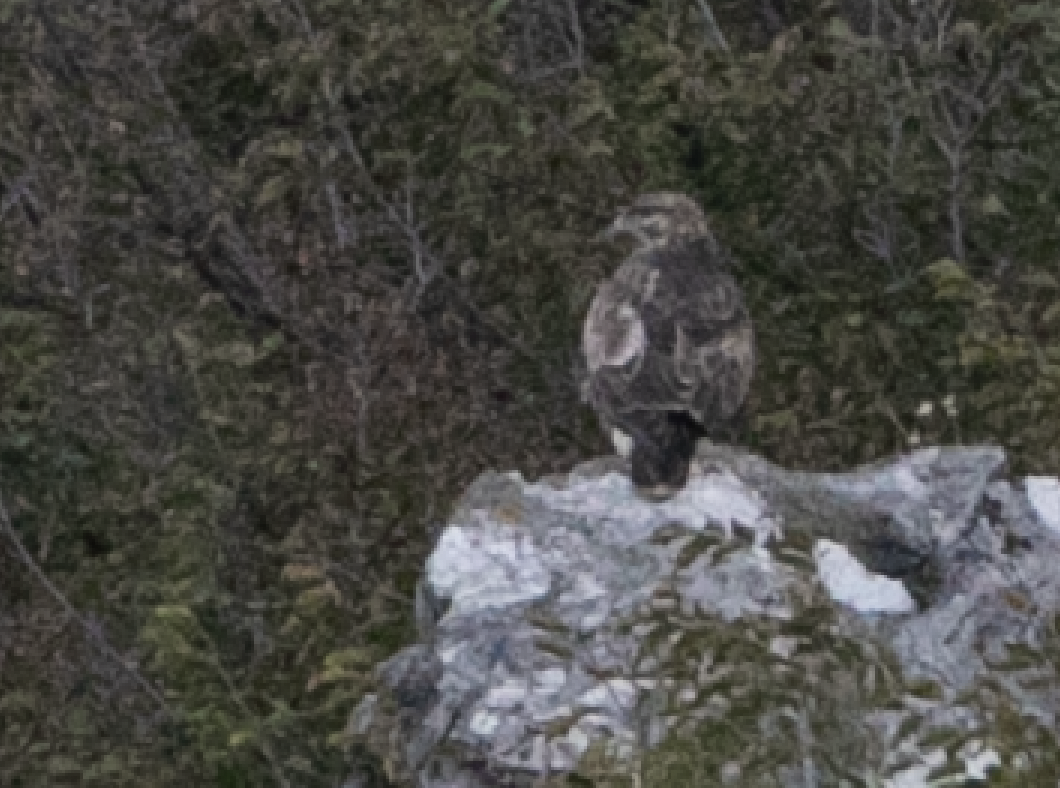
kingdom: Animalia
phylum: Chordata
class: Aves
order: Accipitriformes
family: Accipitridae
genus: Buteo
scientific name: Buteo buteo
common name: Common buzzard
